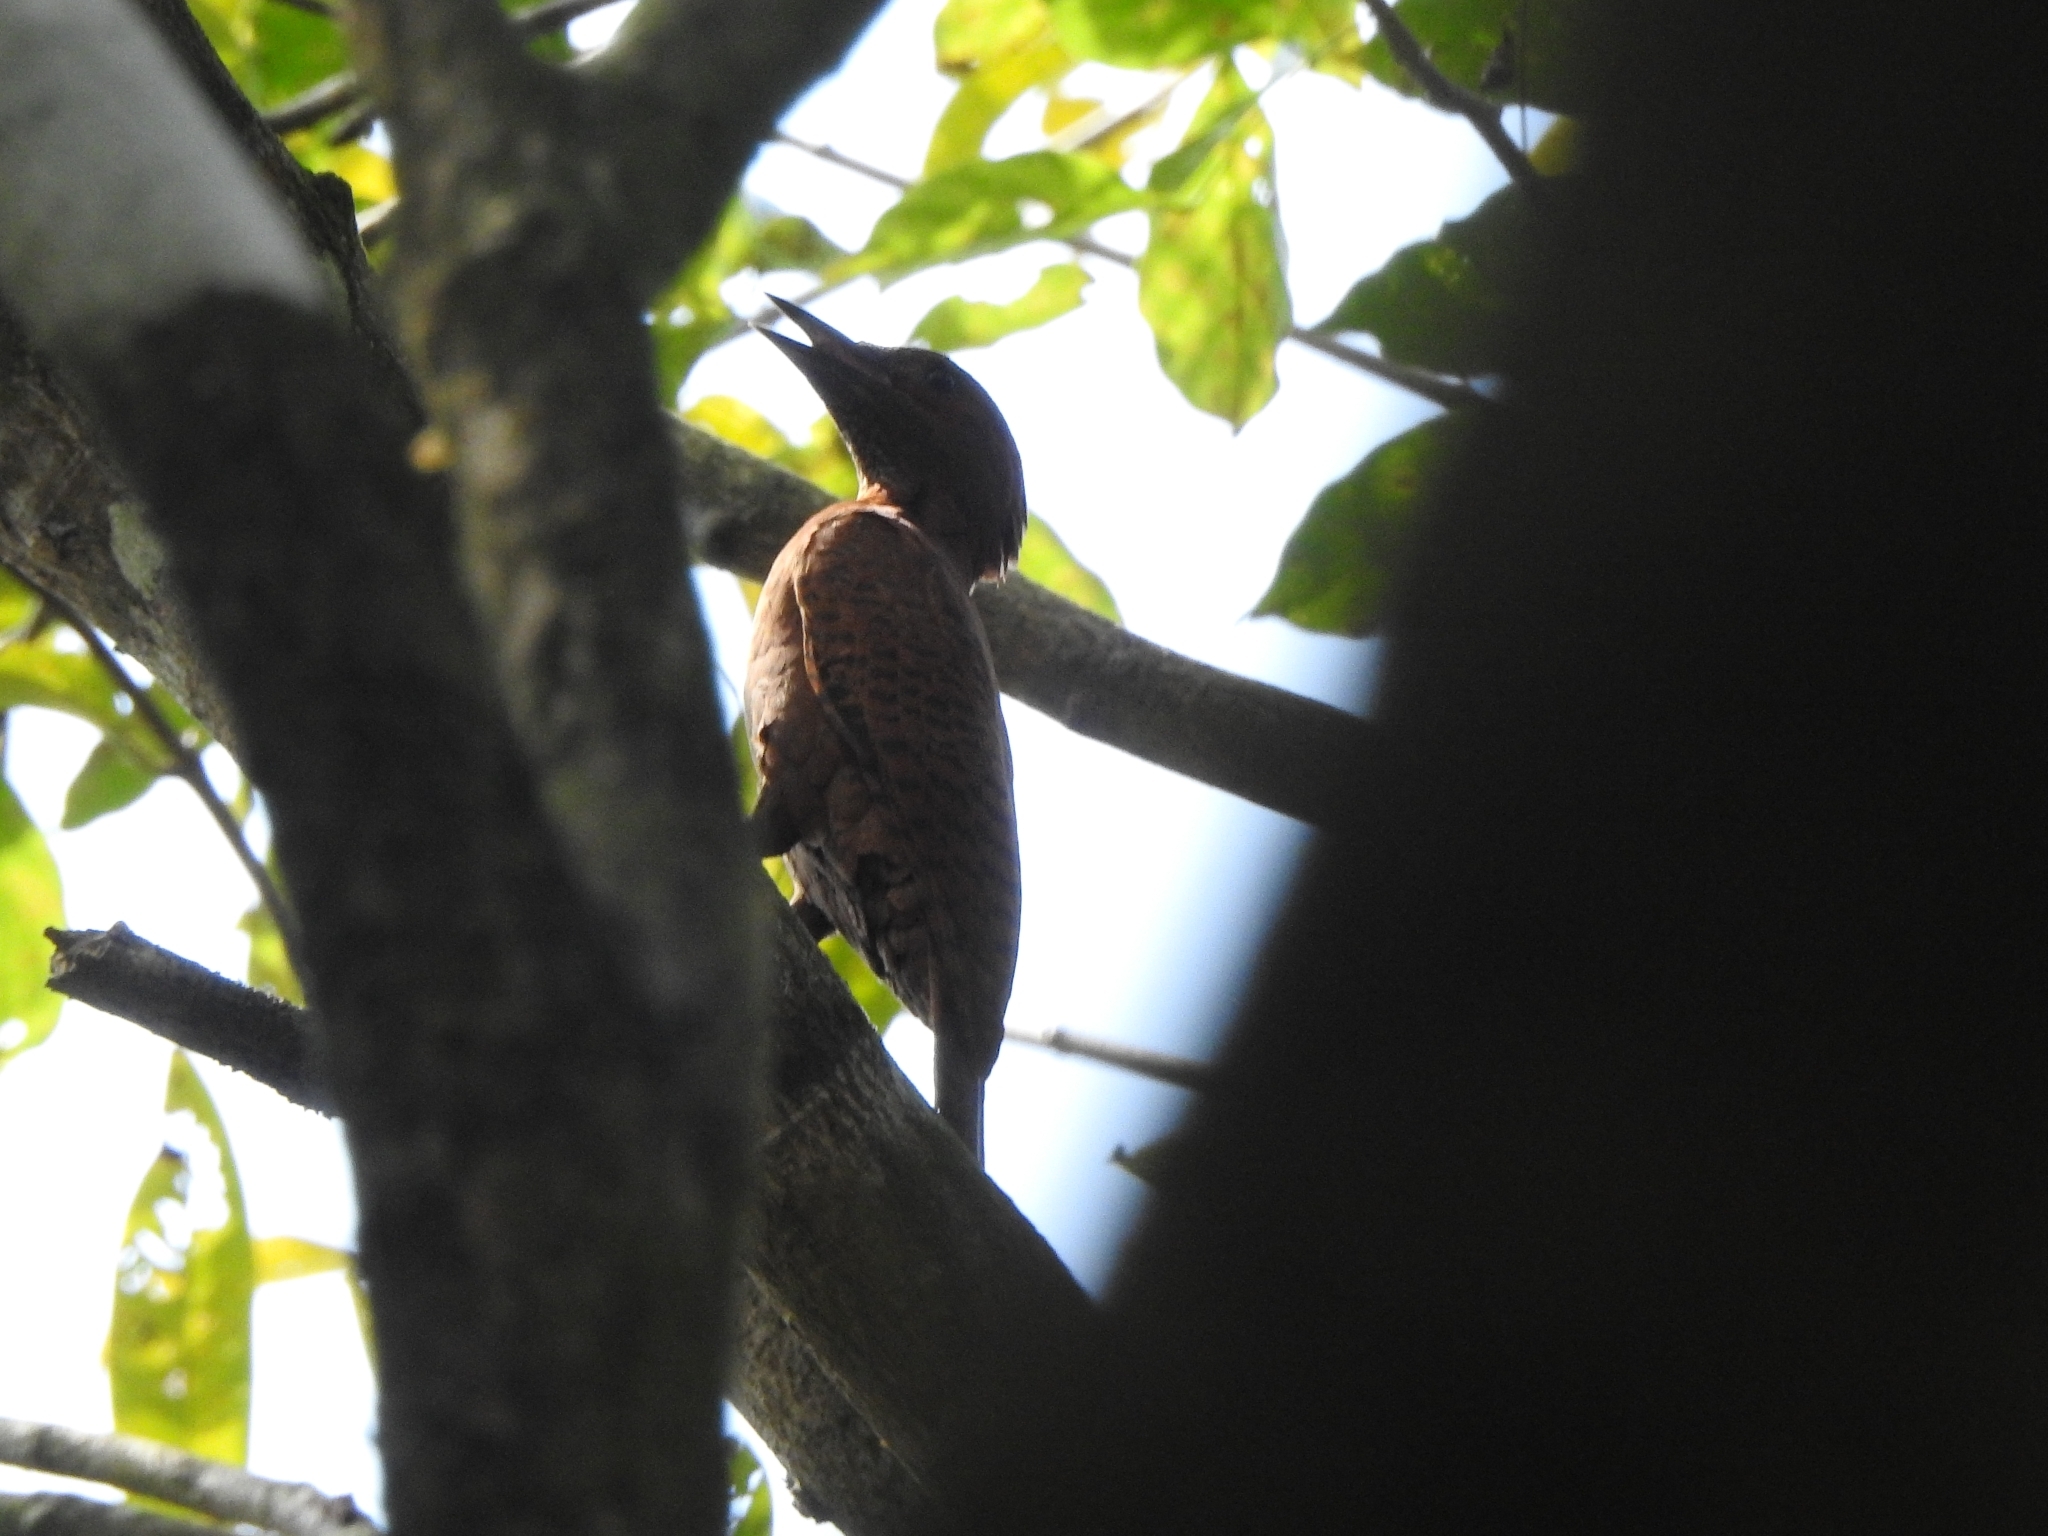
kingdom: Animalia
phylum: Chordata
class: Aves
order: Piciformes
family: Picidae
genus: Micropternus
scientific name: Micropternus brachyurus
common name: Rufous woodpecker
